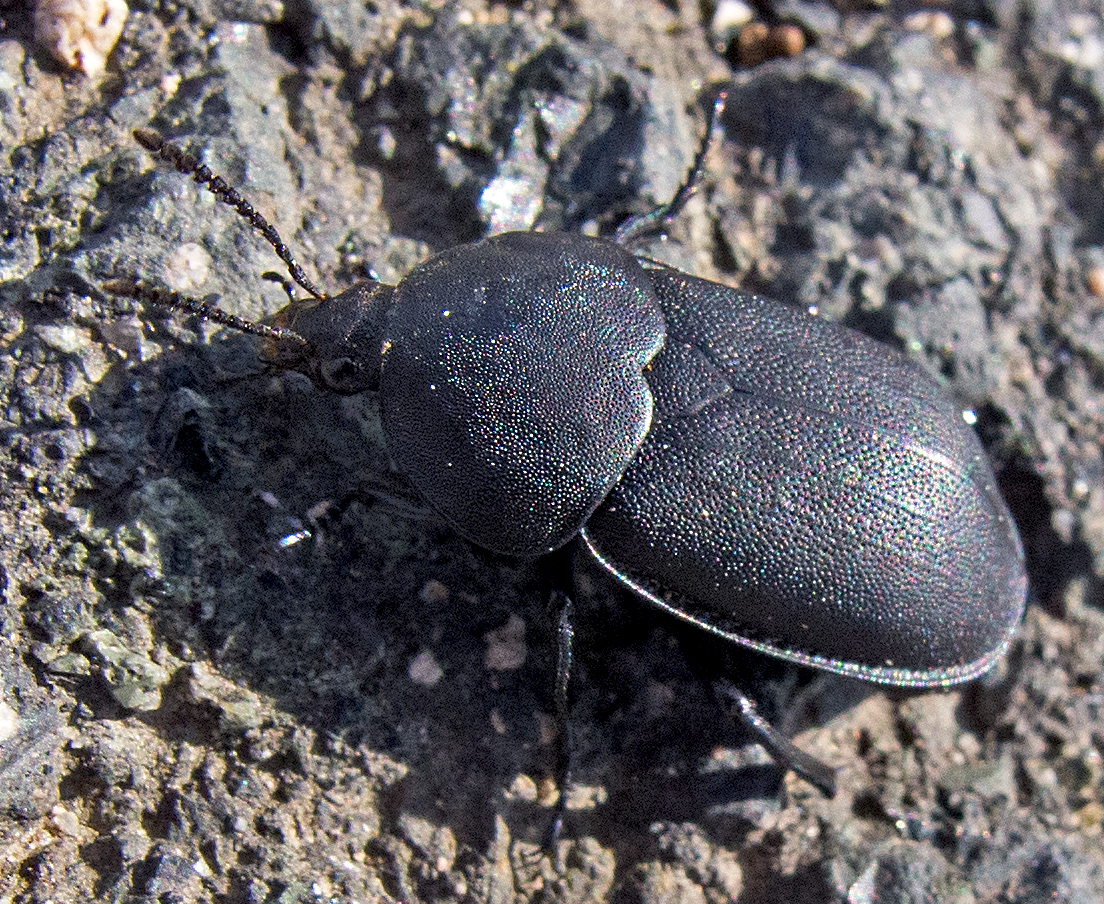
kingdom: Animalia
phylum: Arthropoda
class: Insecta
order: Coleoptera
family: Staphylinidae
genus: Silpha
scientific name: Silpha laevigata
